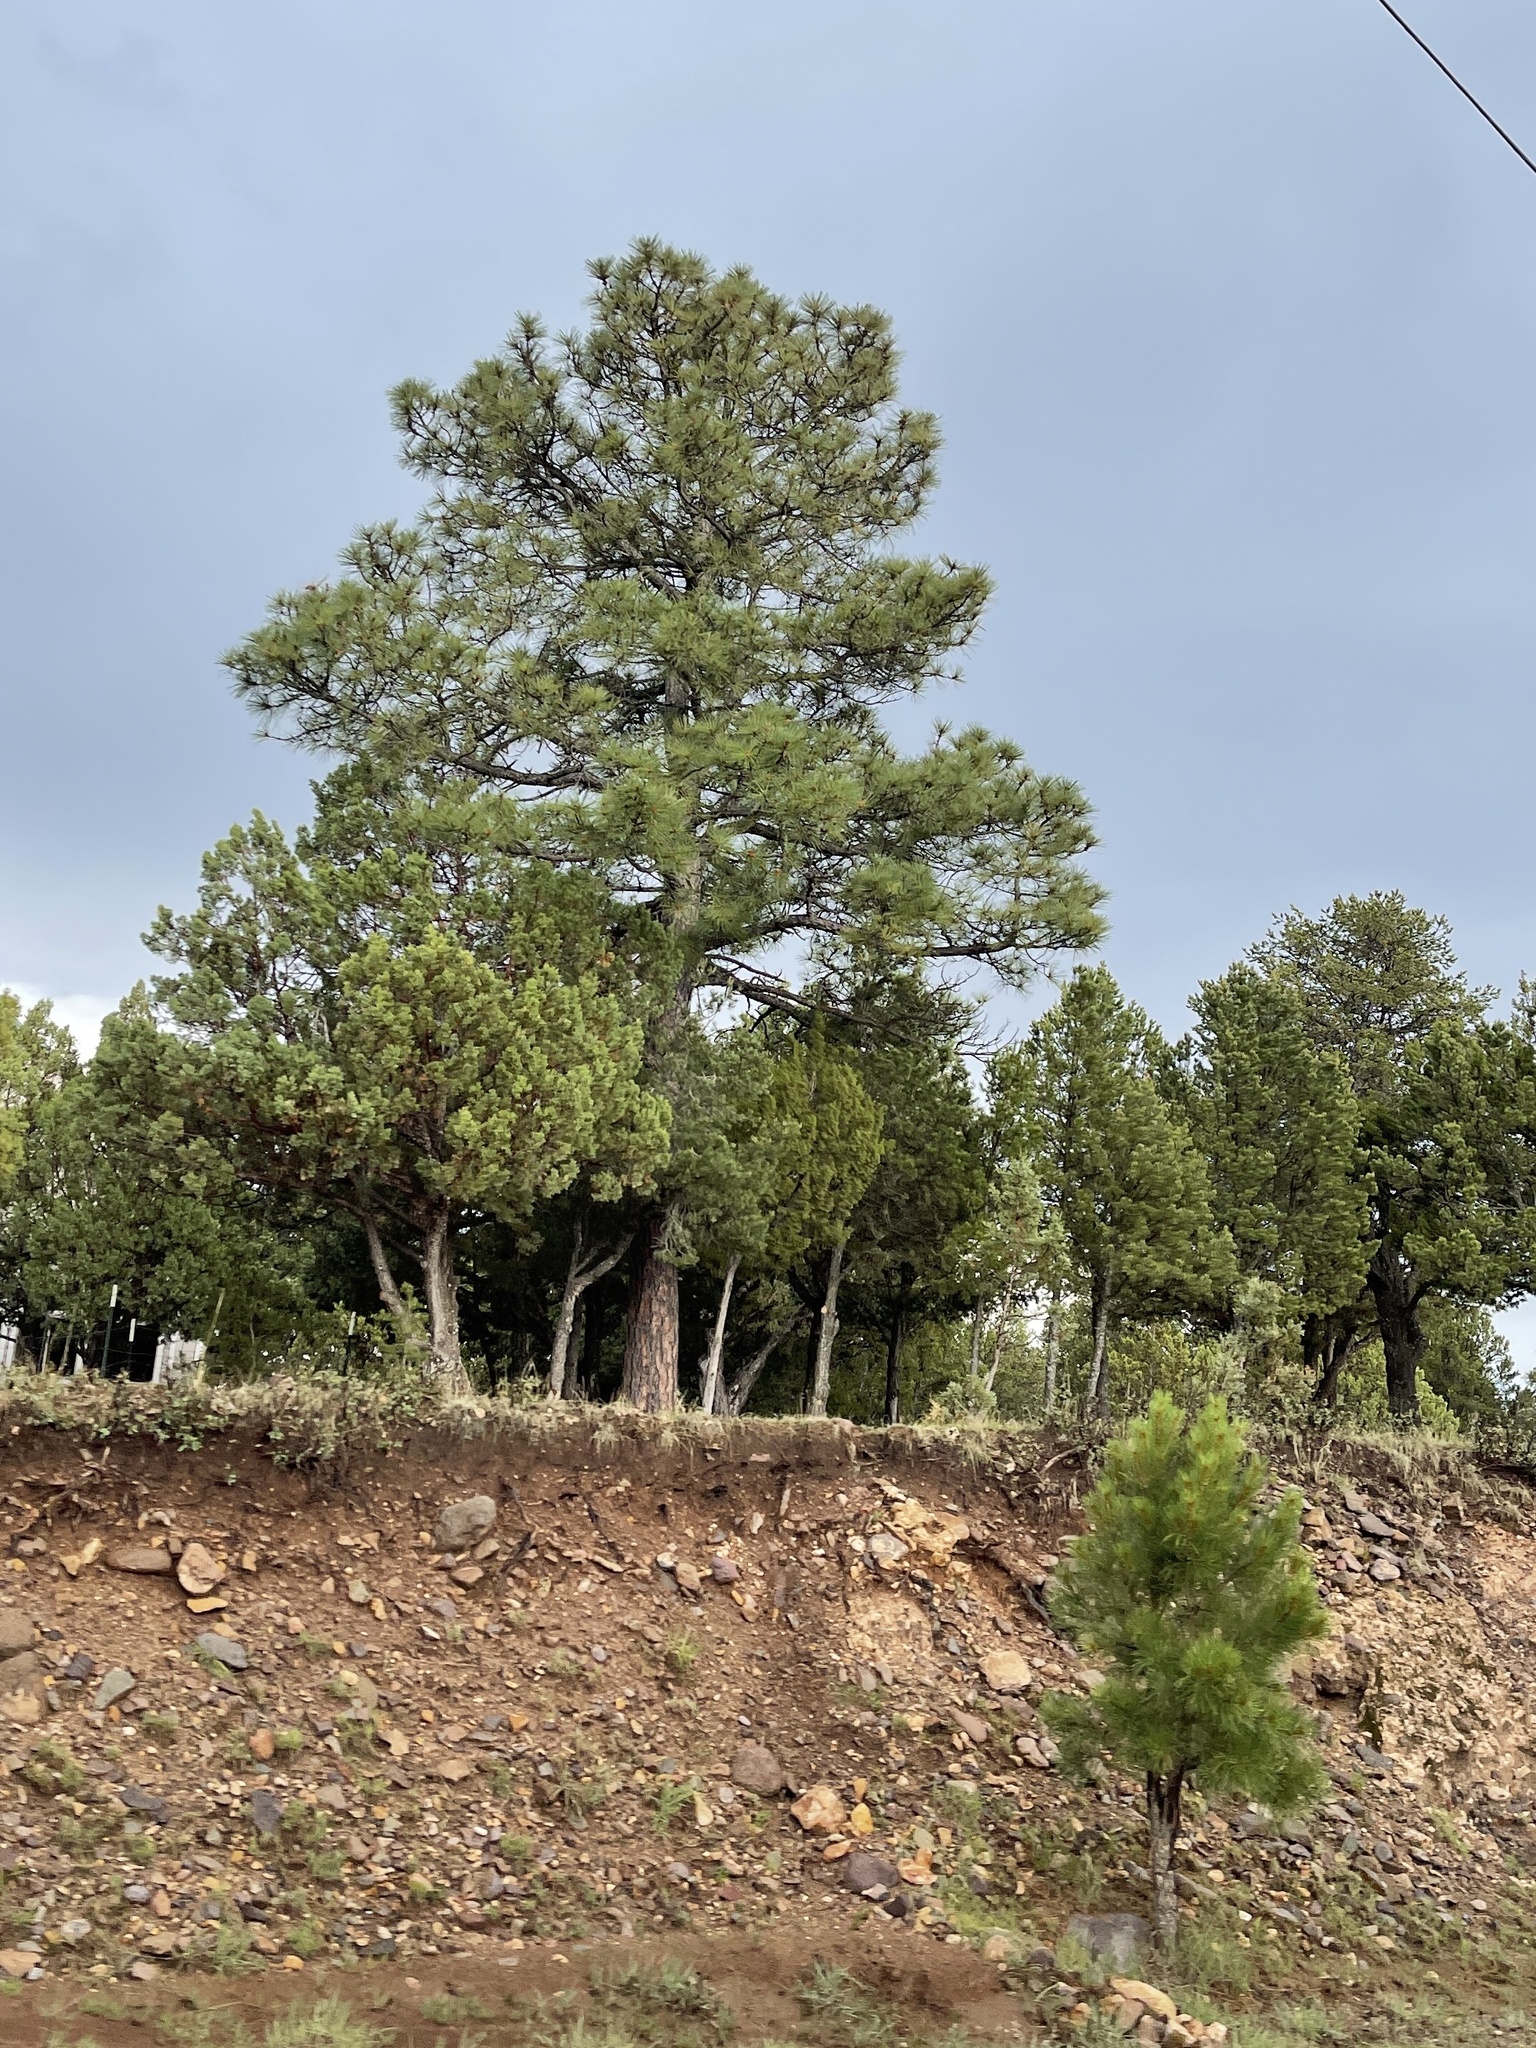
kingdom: Plantae
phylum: Tracheophyta
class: Pinopsida
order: Pinales
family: Pinaceae
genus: Pinus
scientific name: Pinus ponderosa
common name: Western yellow-pine
